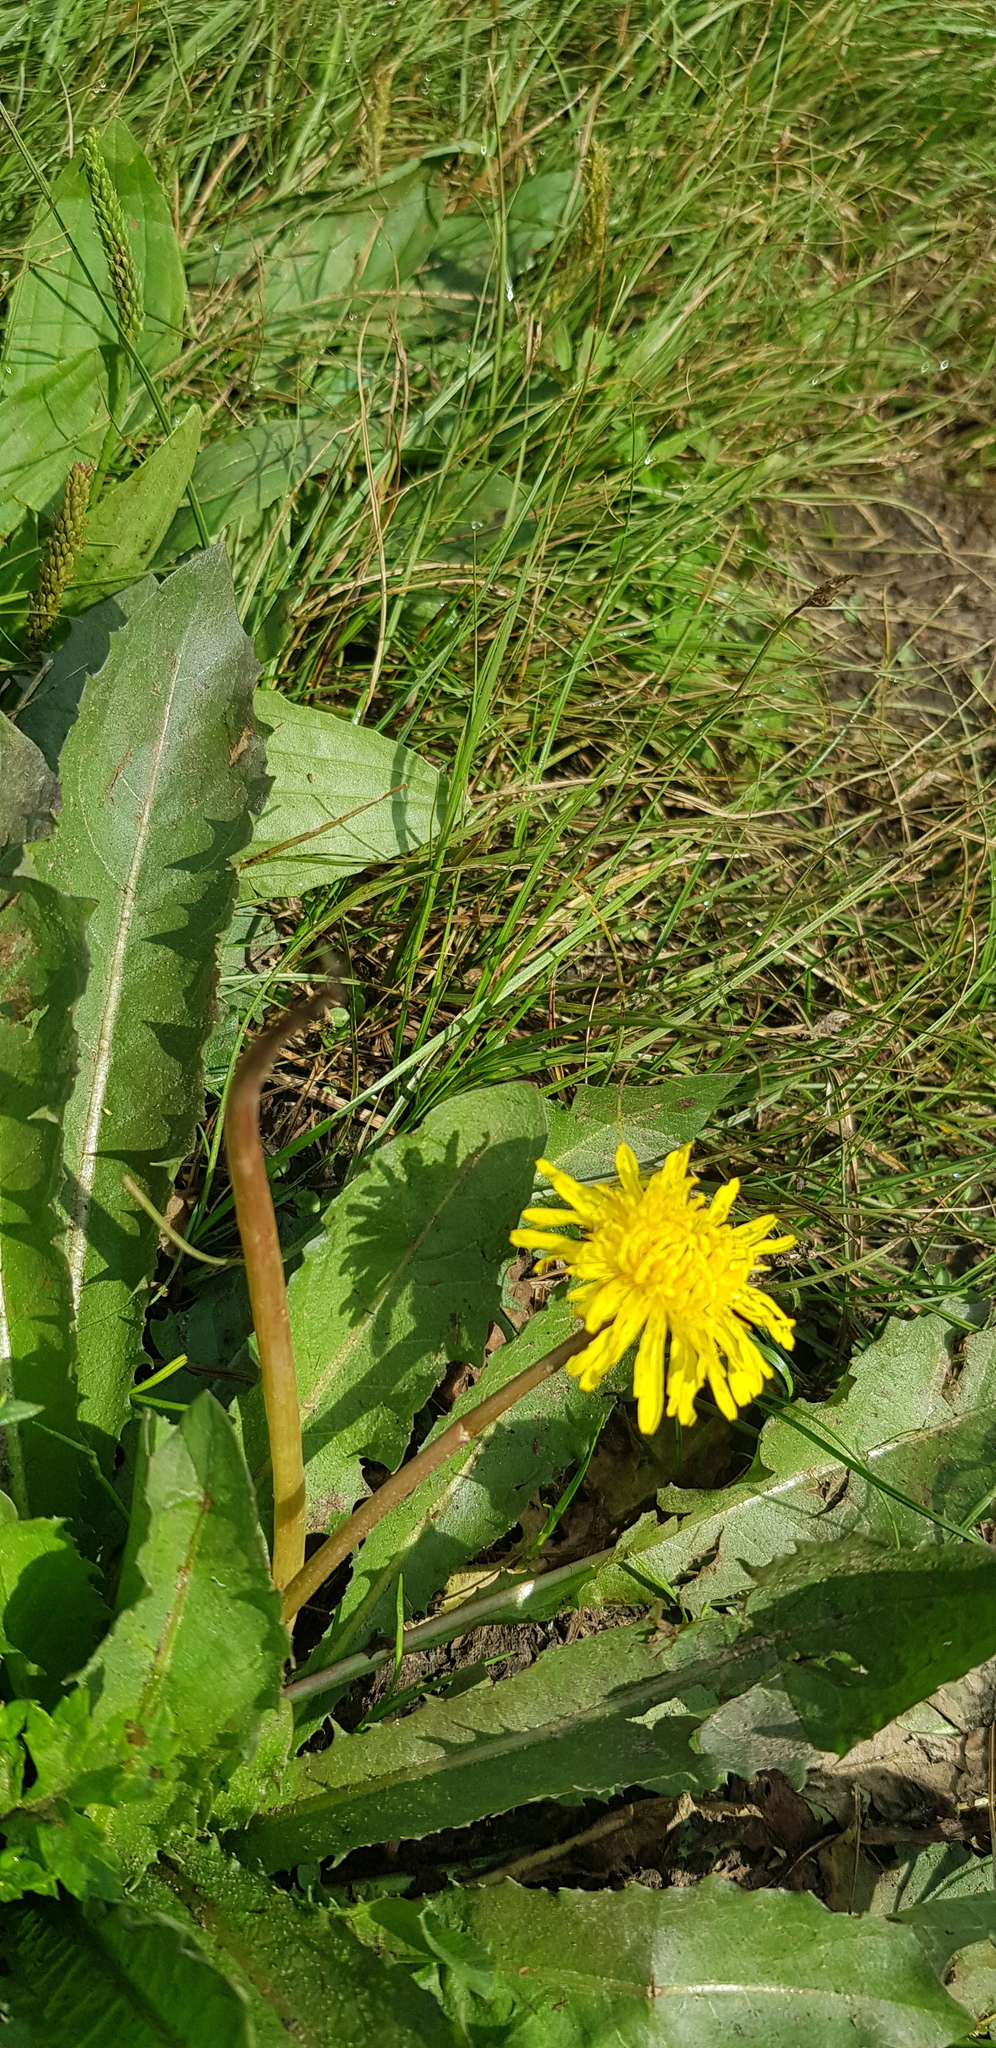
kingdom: Plantae
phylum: Tracheophyta
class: Magnoliopsida
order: Asterales
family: Asteraceae
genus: Taraxacum
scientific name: Taraxacum ceratophorum
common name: Horn-bearing dandelion
